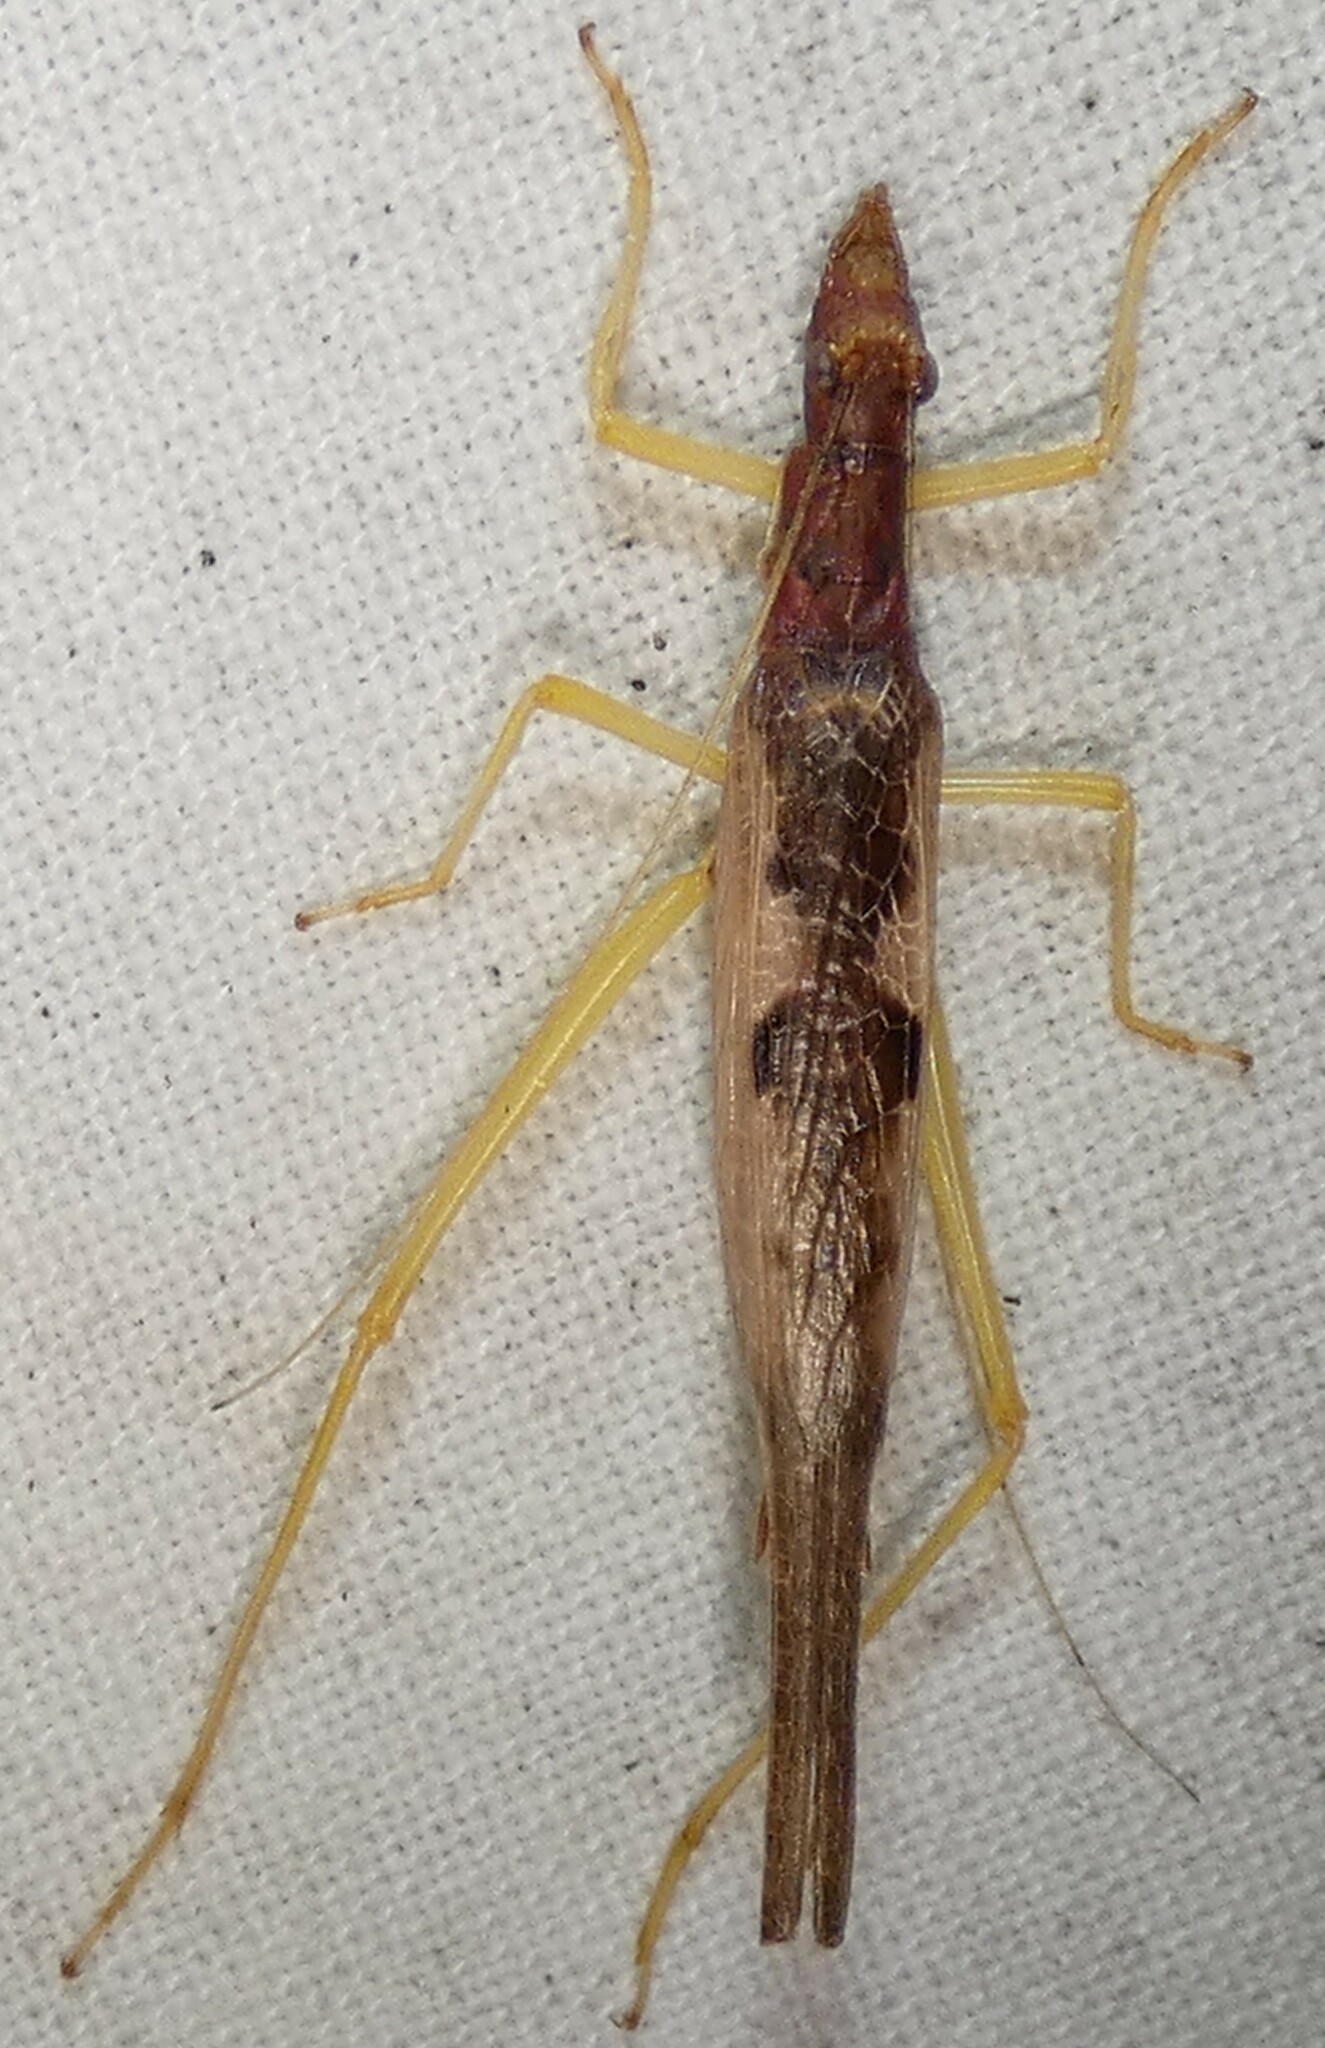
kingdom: Animalia
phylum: Arthropoda
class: Insecta
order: Orthoptera
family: Gryllidae
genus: Neoxabea
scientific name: Neoxabea bipunctata
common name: Two-spotted tree cricket
